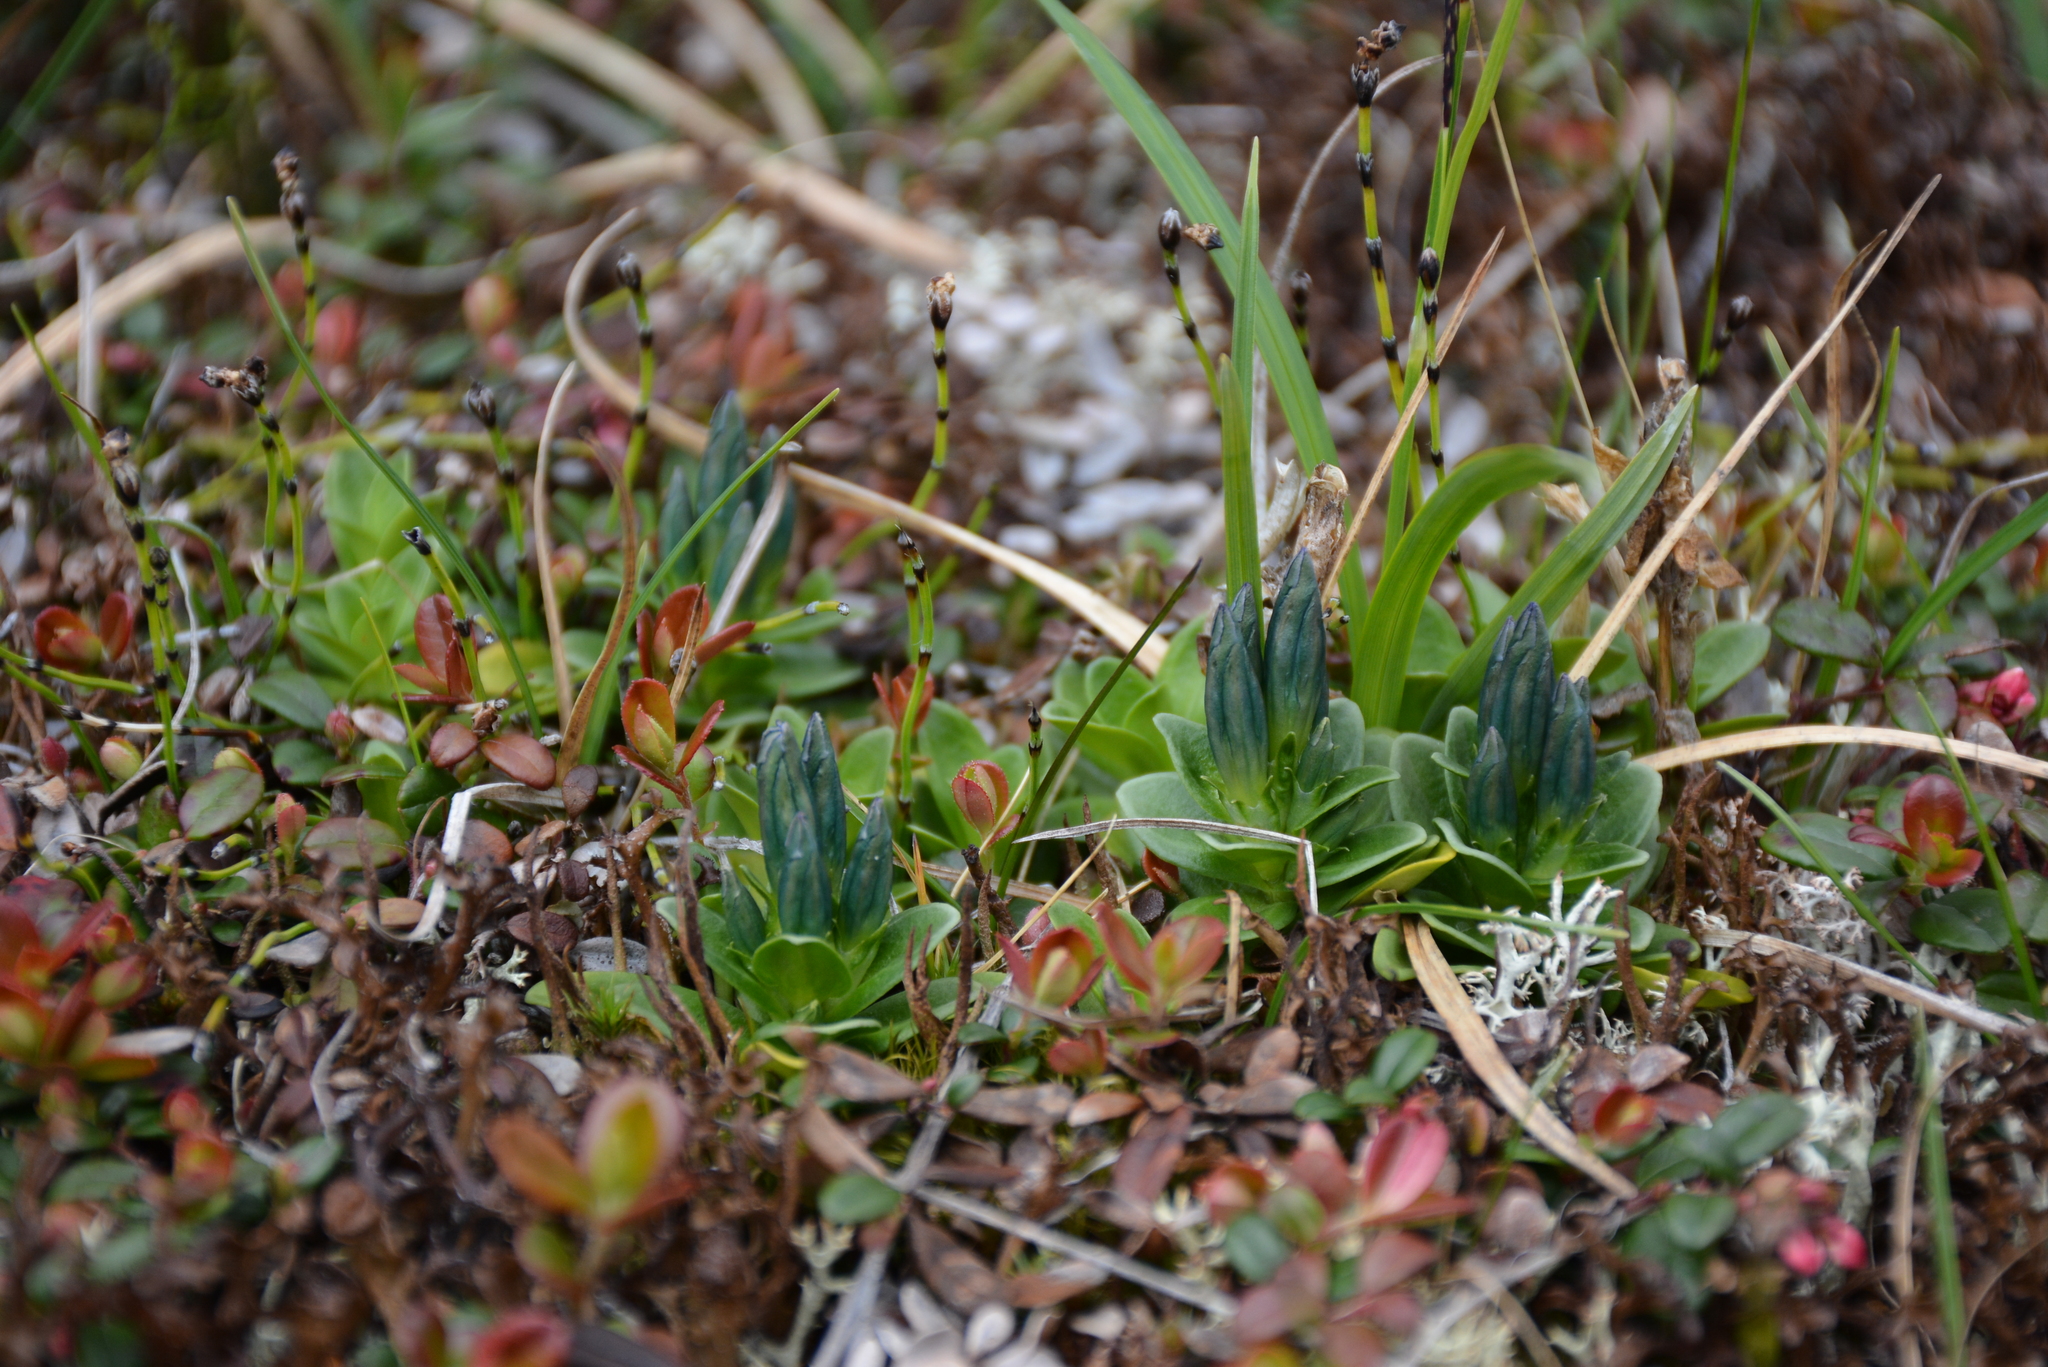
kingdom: Plantae
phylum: Tracheophyta
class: Magnoliopsida
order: Gentianales
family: Gentianaceae
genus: Gentiana
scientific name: Gentiana glauca
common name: Alpine gentian
